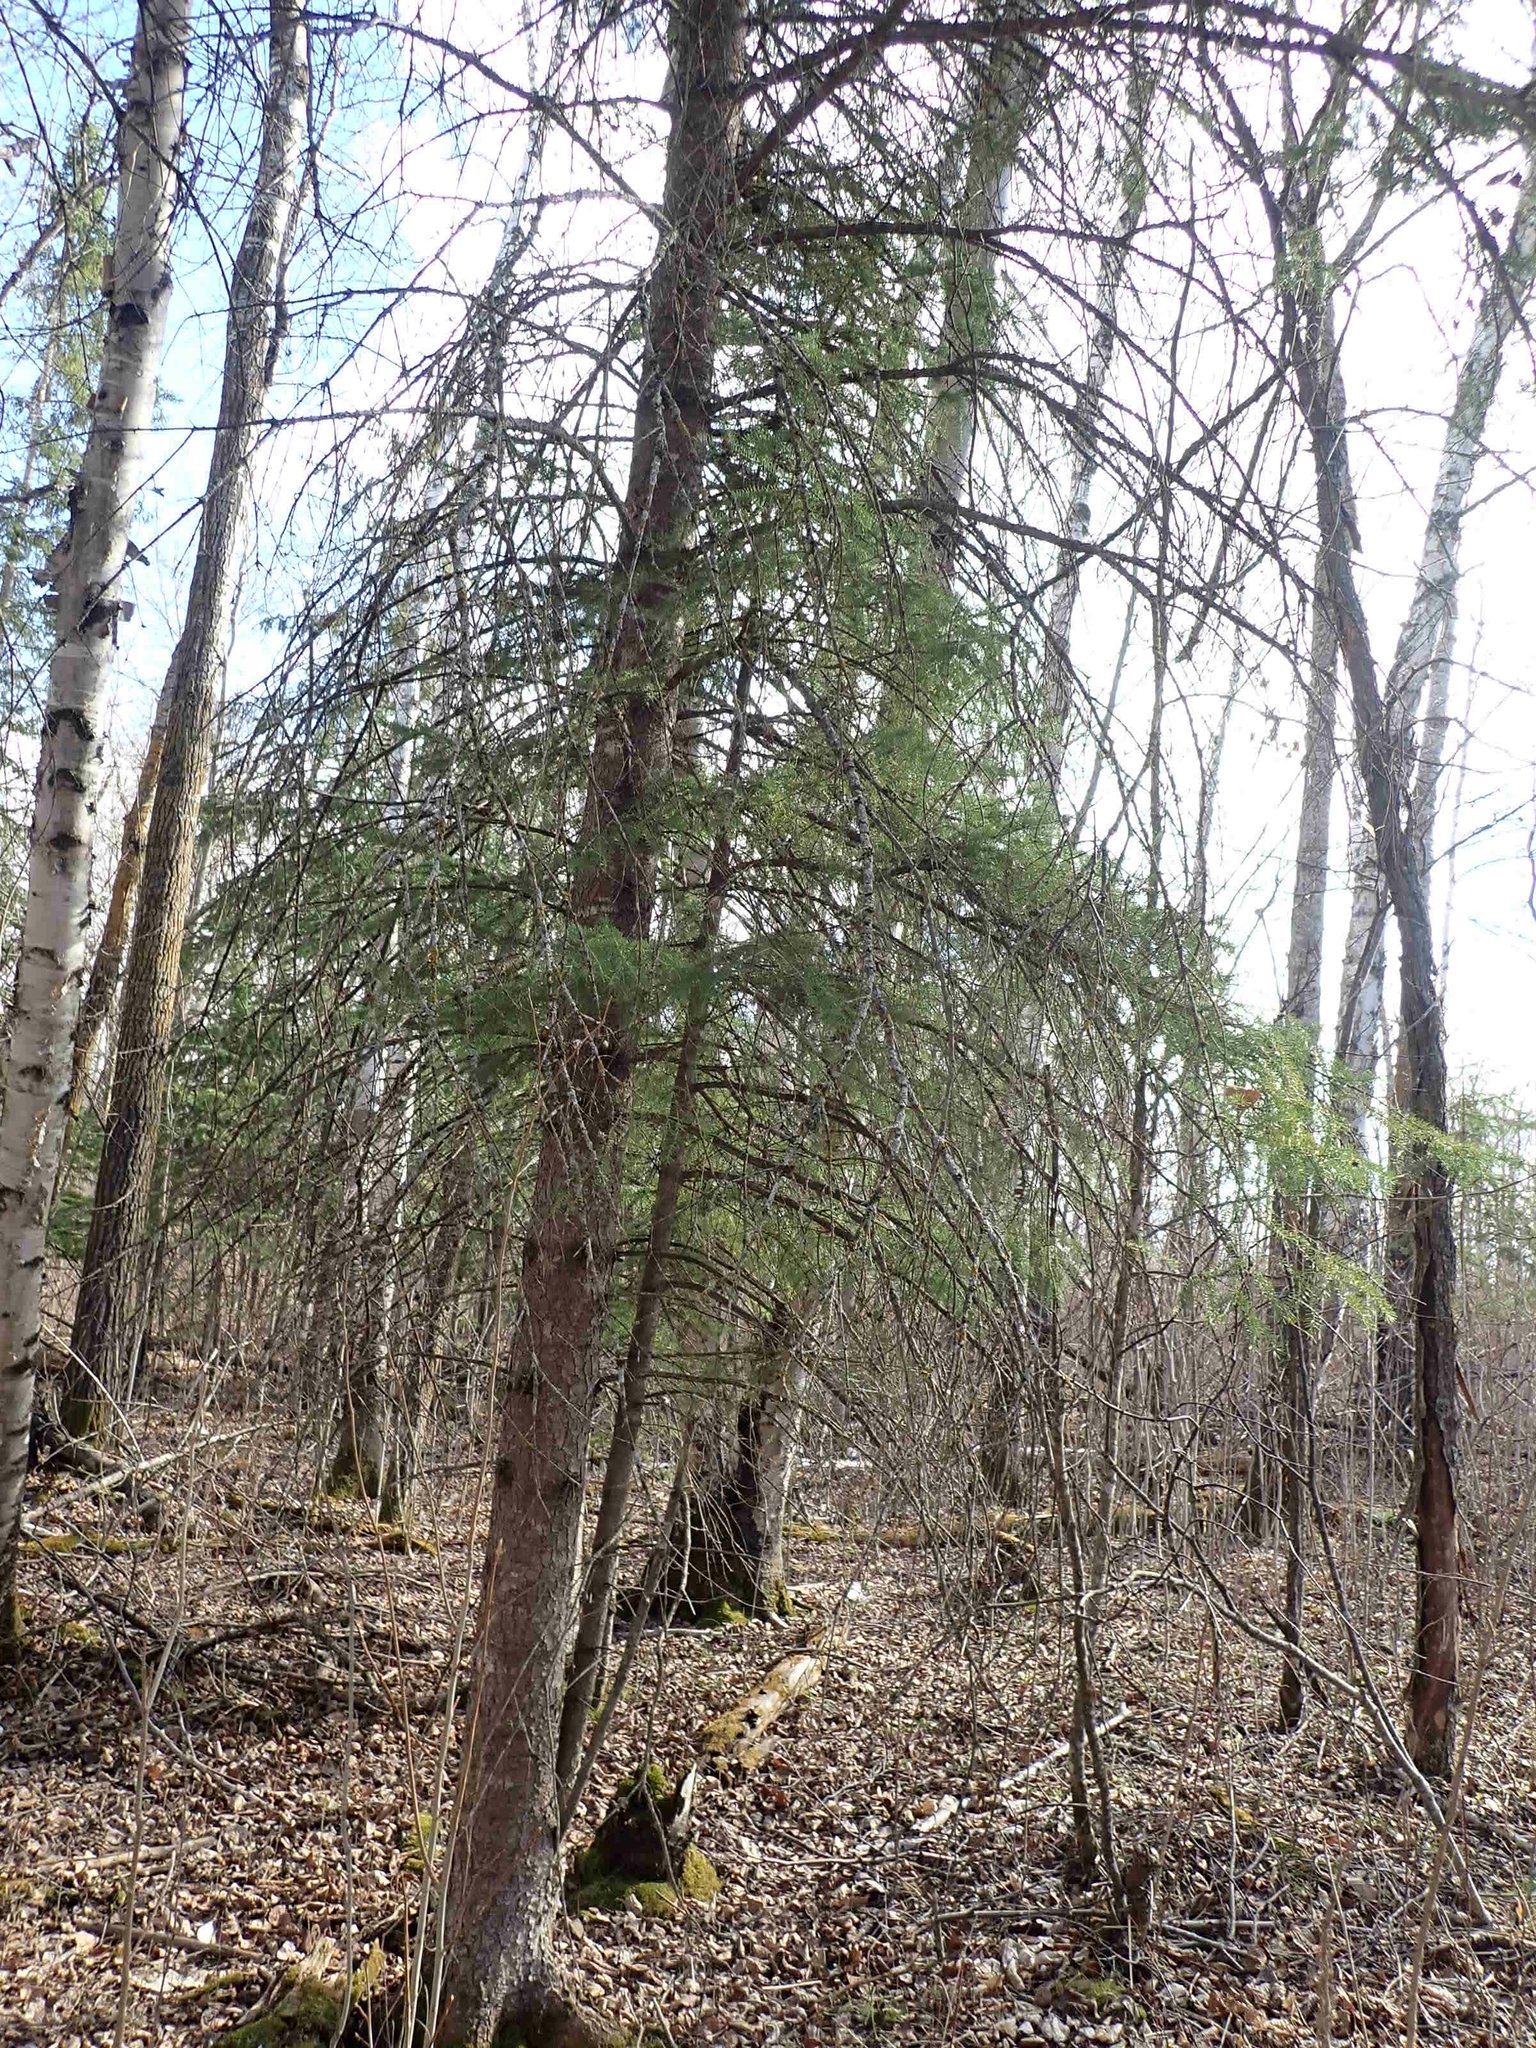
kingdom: Plantae
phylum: Tracheophyta
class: Pinopsida
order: Pinales
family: Pinaceae
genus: Picea
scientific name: Picea glauca
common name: White spruce
